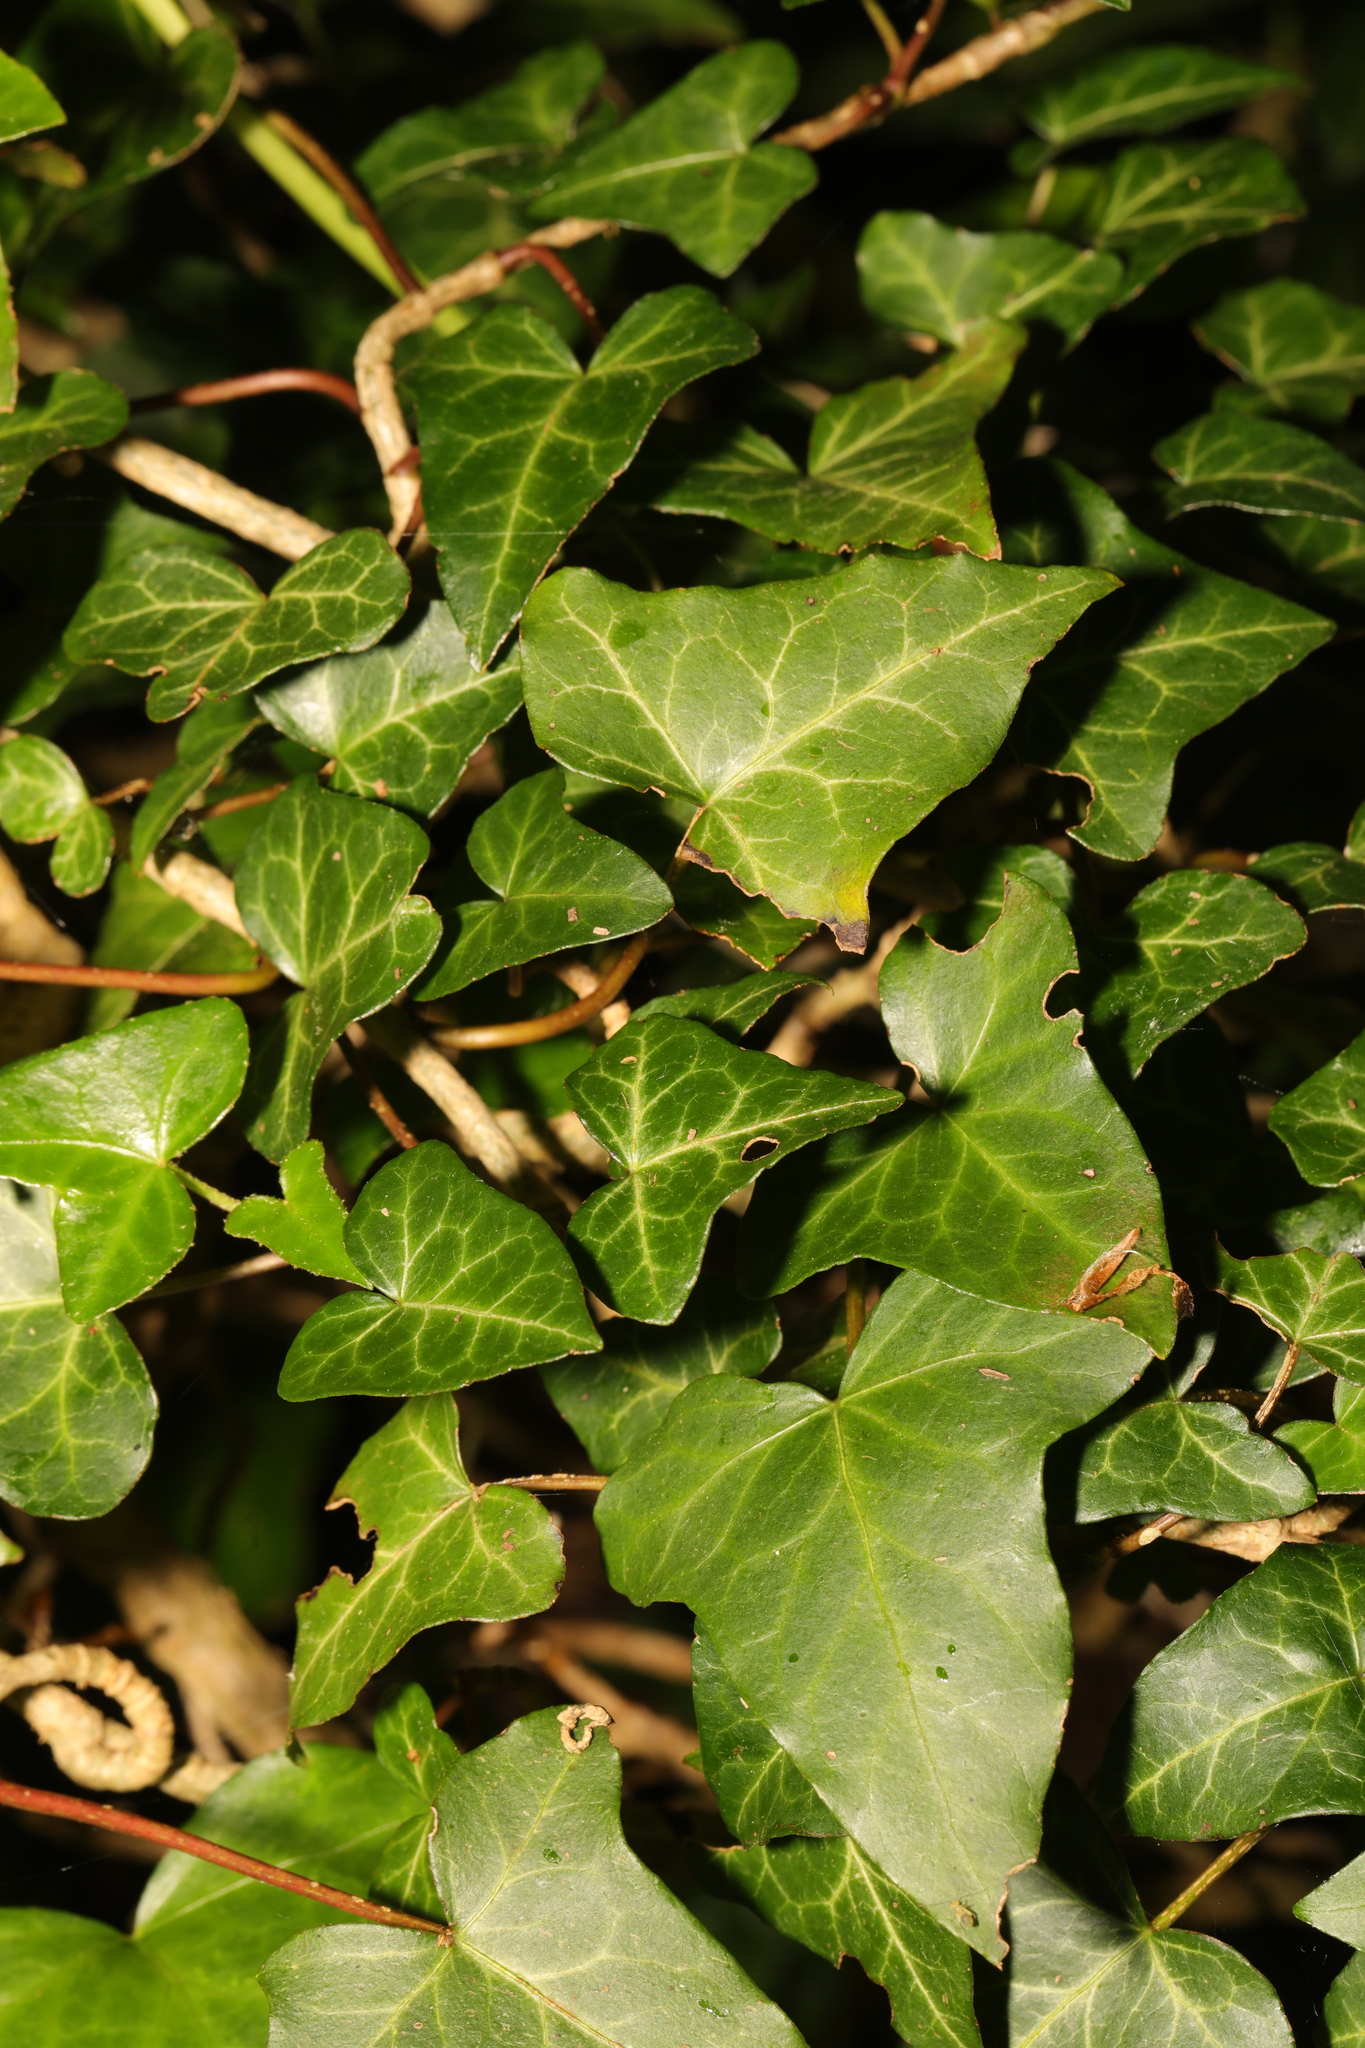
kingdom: Plantae
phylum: Tracheophyta
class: Magnoliopsida
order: Apiales
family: Araliaceae
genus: Hedera
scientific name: Hedera helix
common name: Ivy
